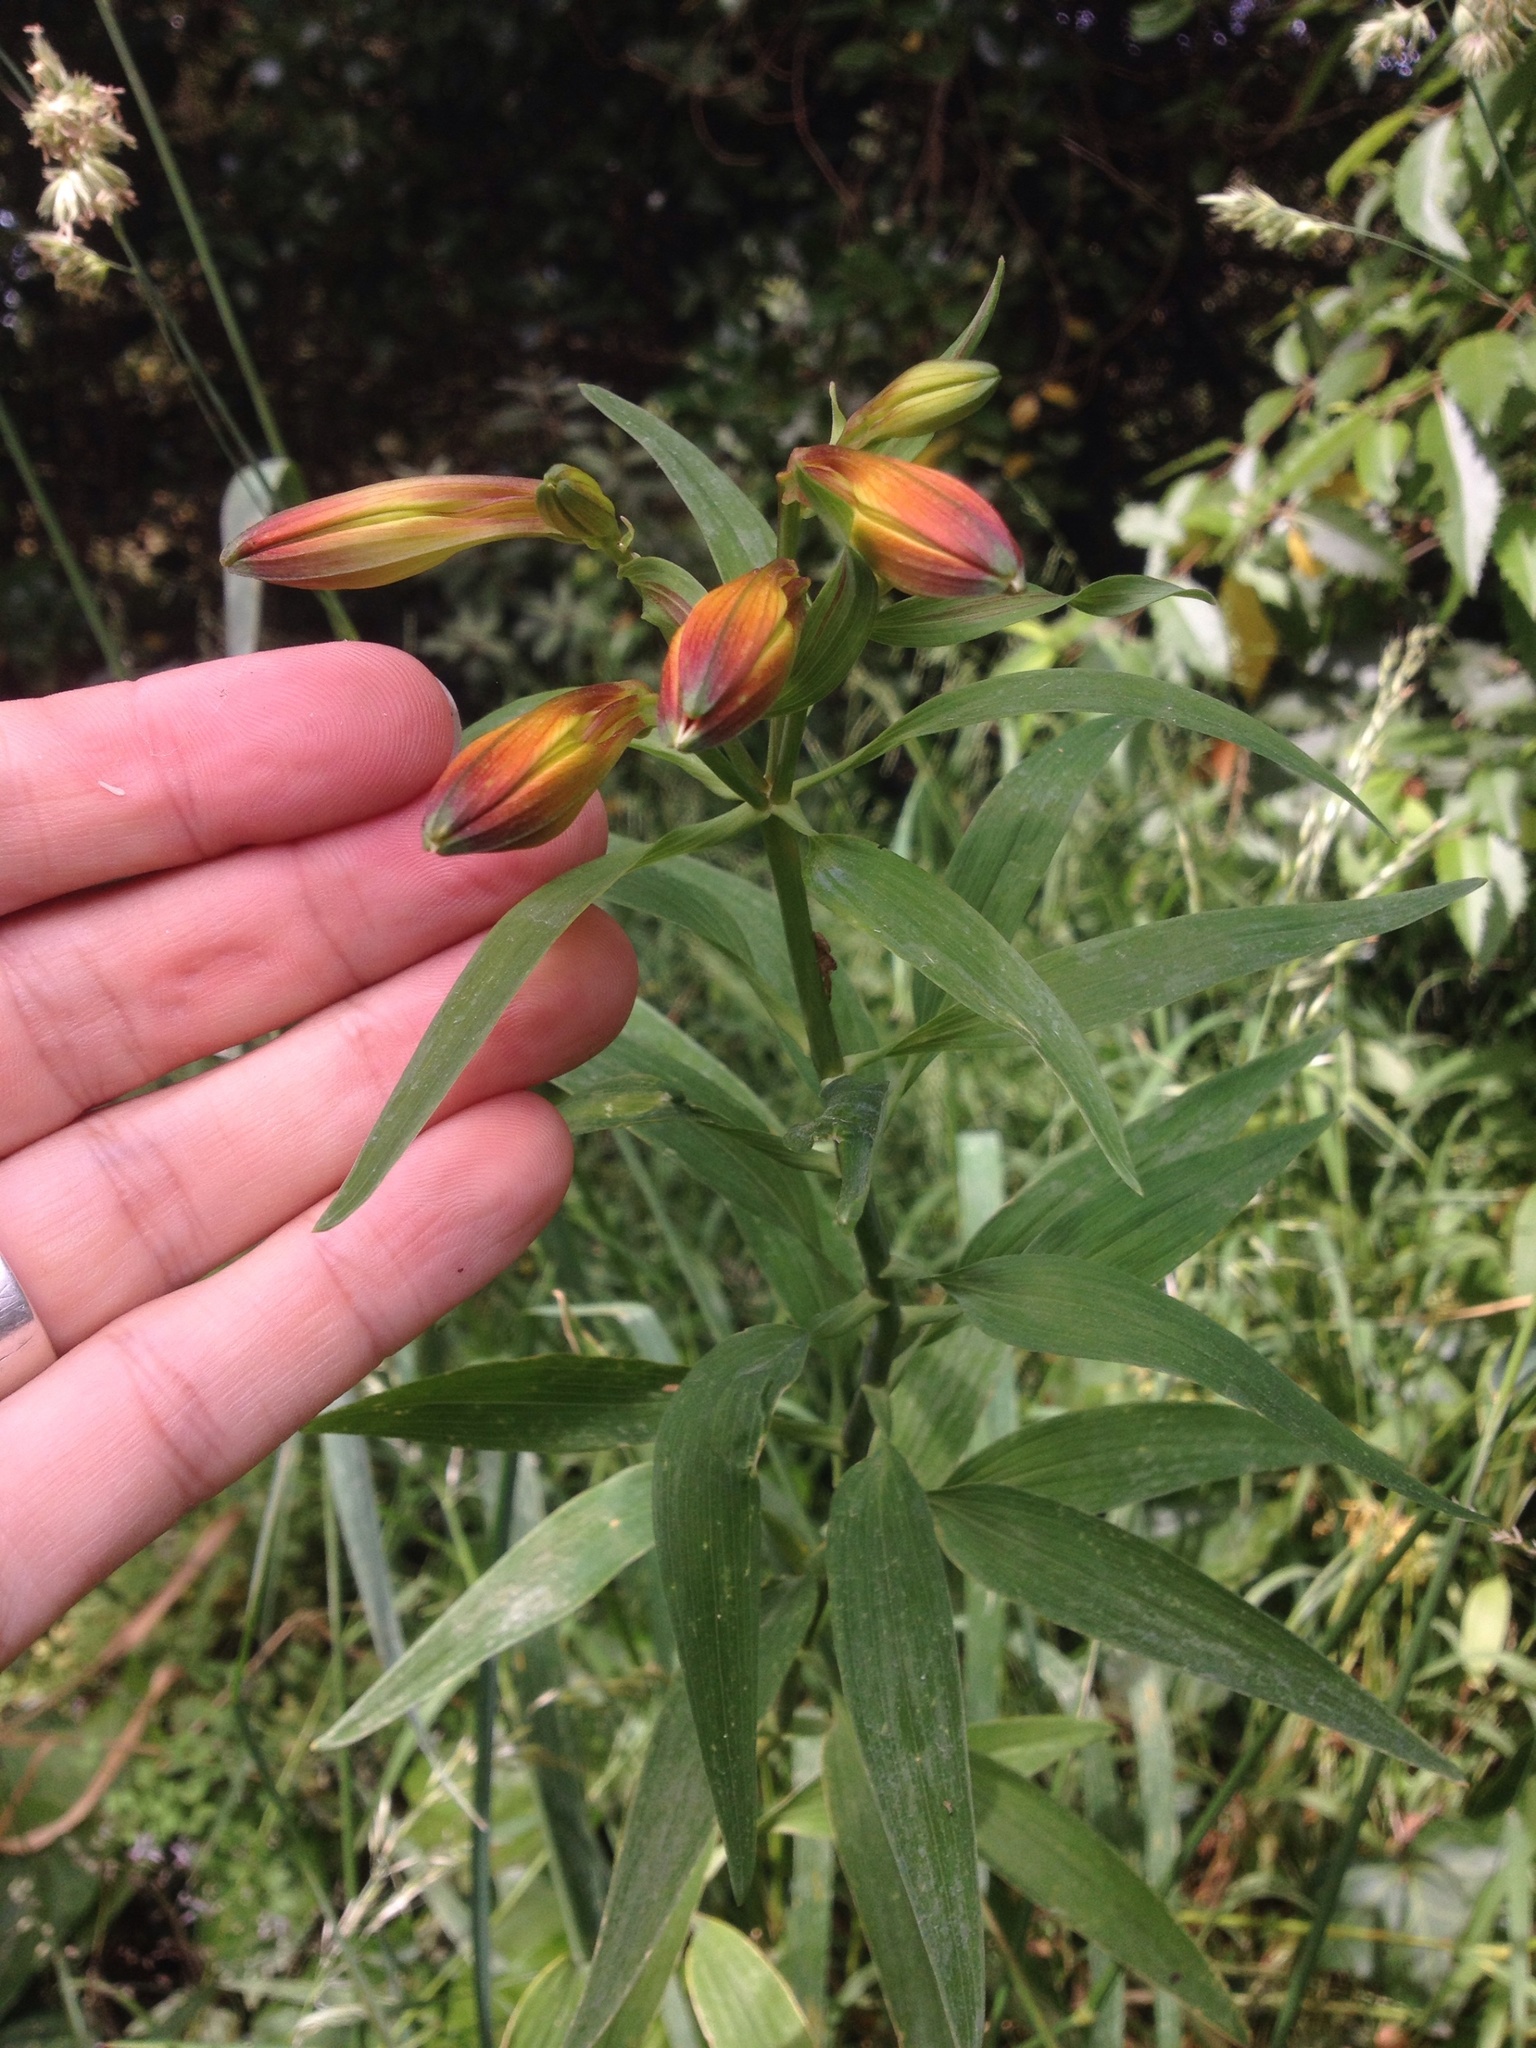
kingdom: Plantae
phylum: Tracheophyta
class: Liliopsida
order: Liliales
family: Alstroemeriaceae
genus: Alstroemeria
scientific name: Alstroemeria aurea
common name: Peruvian lily
